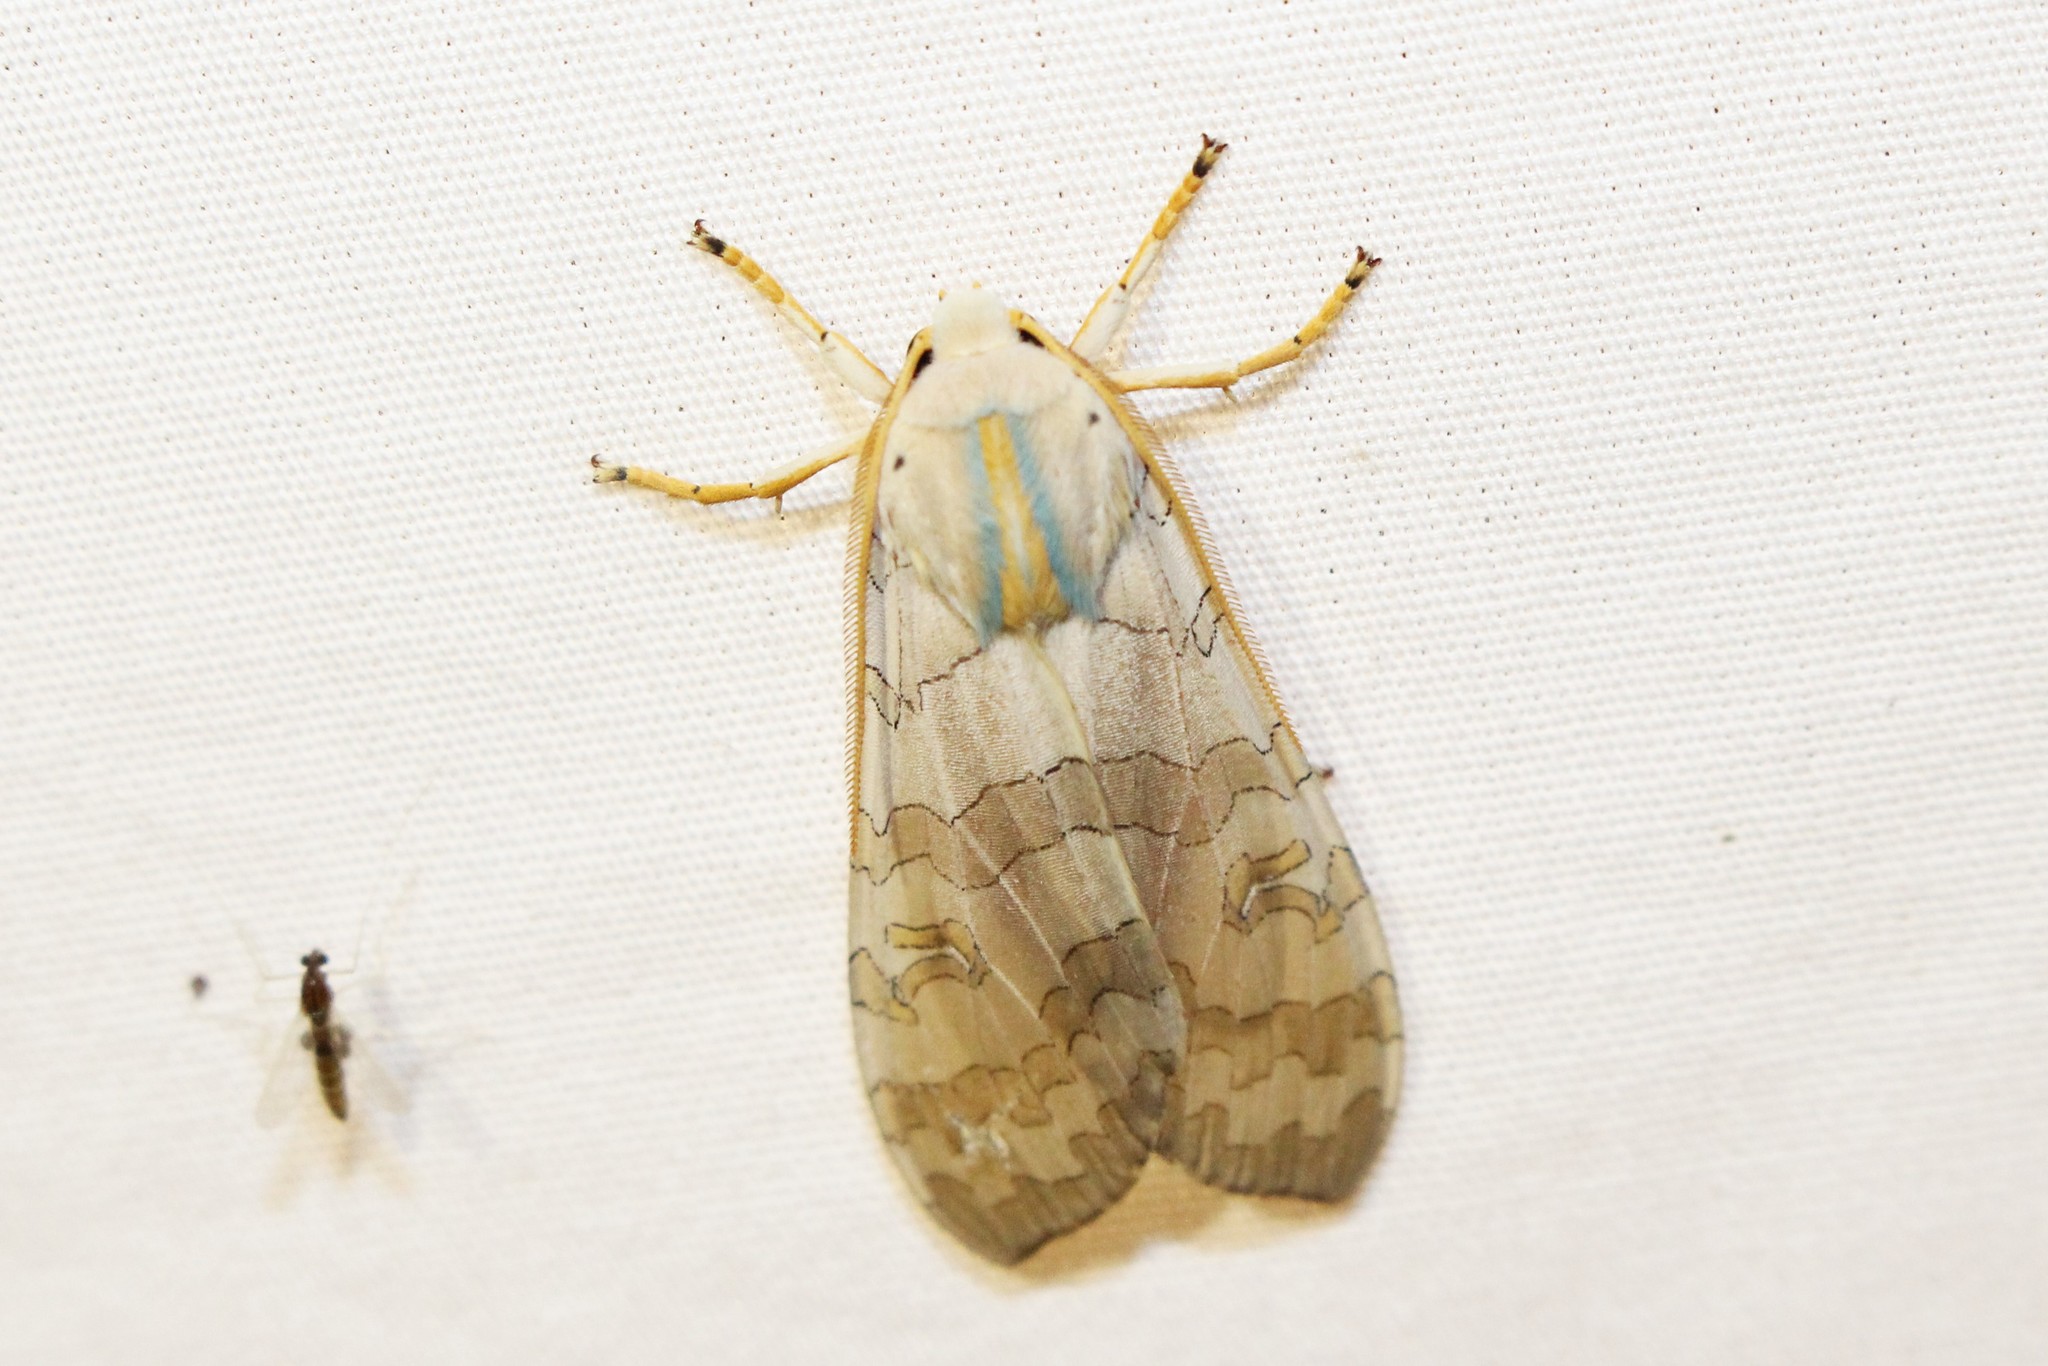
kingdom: Animalia
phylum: Arthropoda
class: Insecta
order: Lepidoptera
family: Erebidae
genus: Halysidota
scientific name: Halysidota tessellaris
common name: Banded tussock moth
